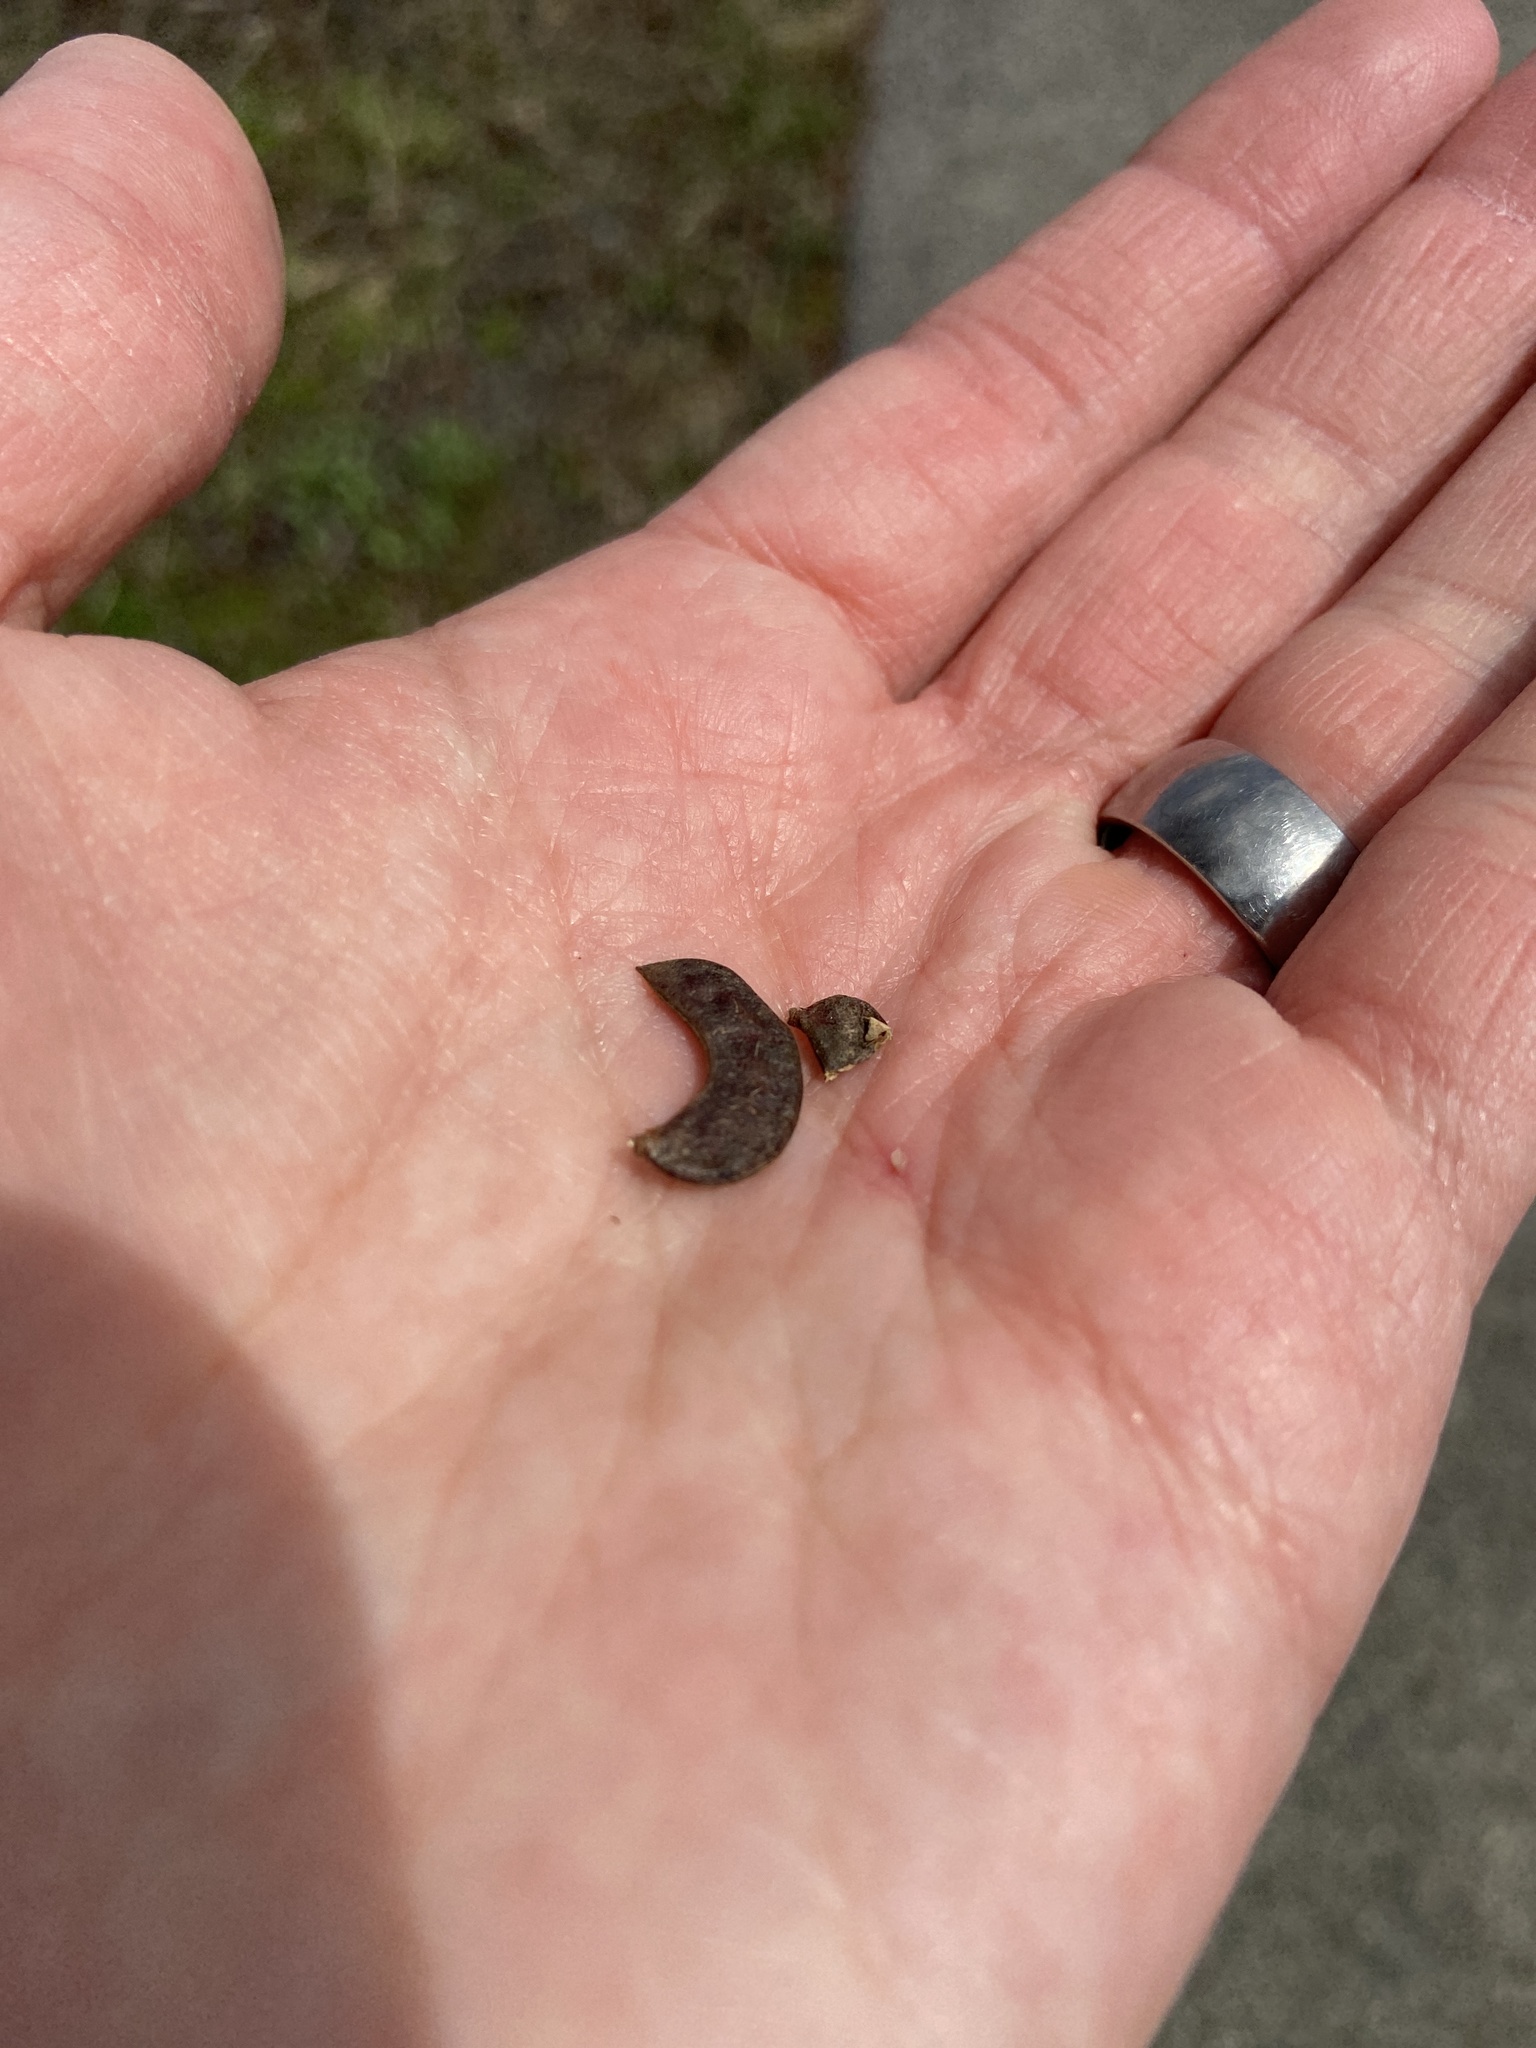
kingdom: Plantae
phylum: Tracheophyta
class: Magnoliopsida
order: Fabales
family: Fabaceae
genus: Desmanthus
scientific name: Desmanthus illinoensis
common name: Illinois bundle-flower
